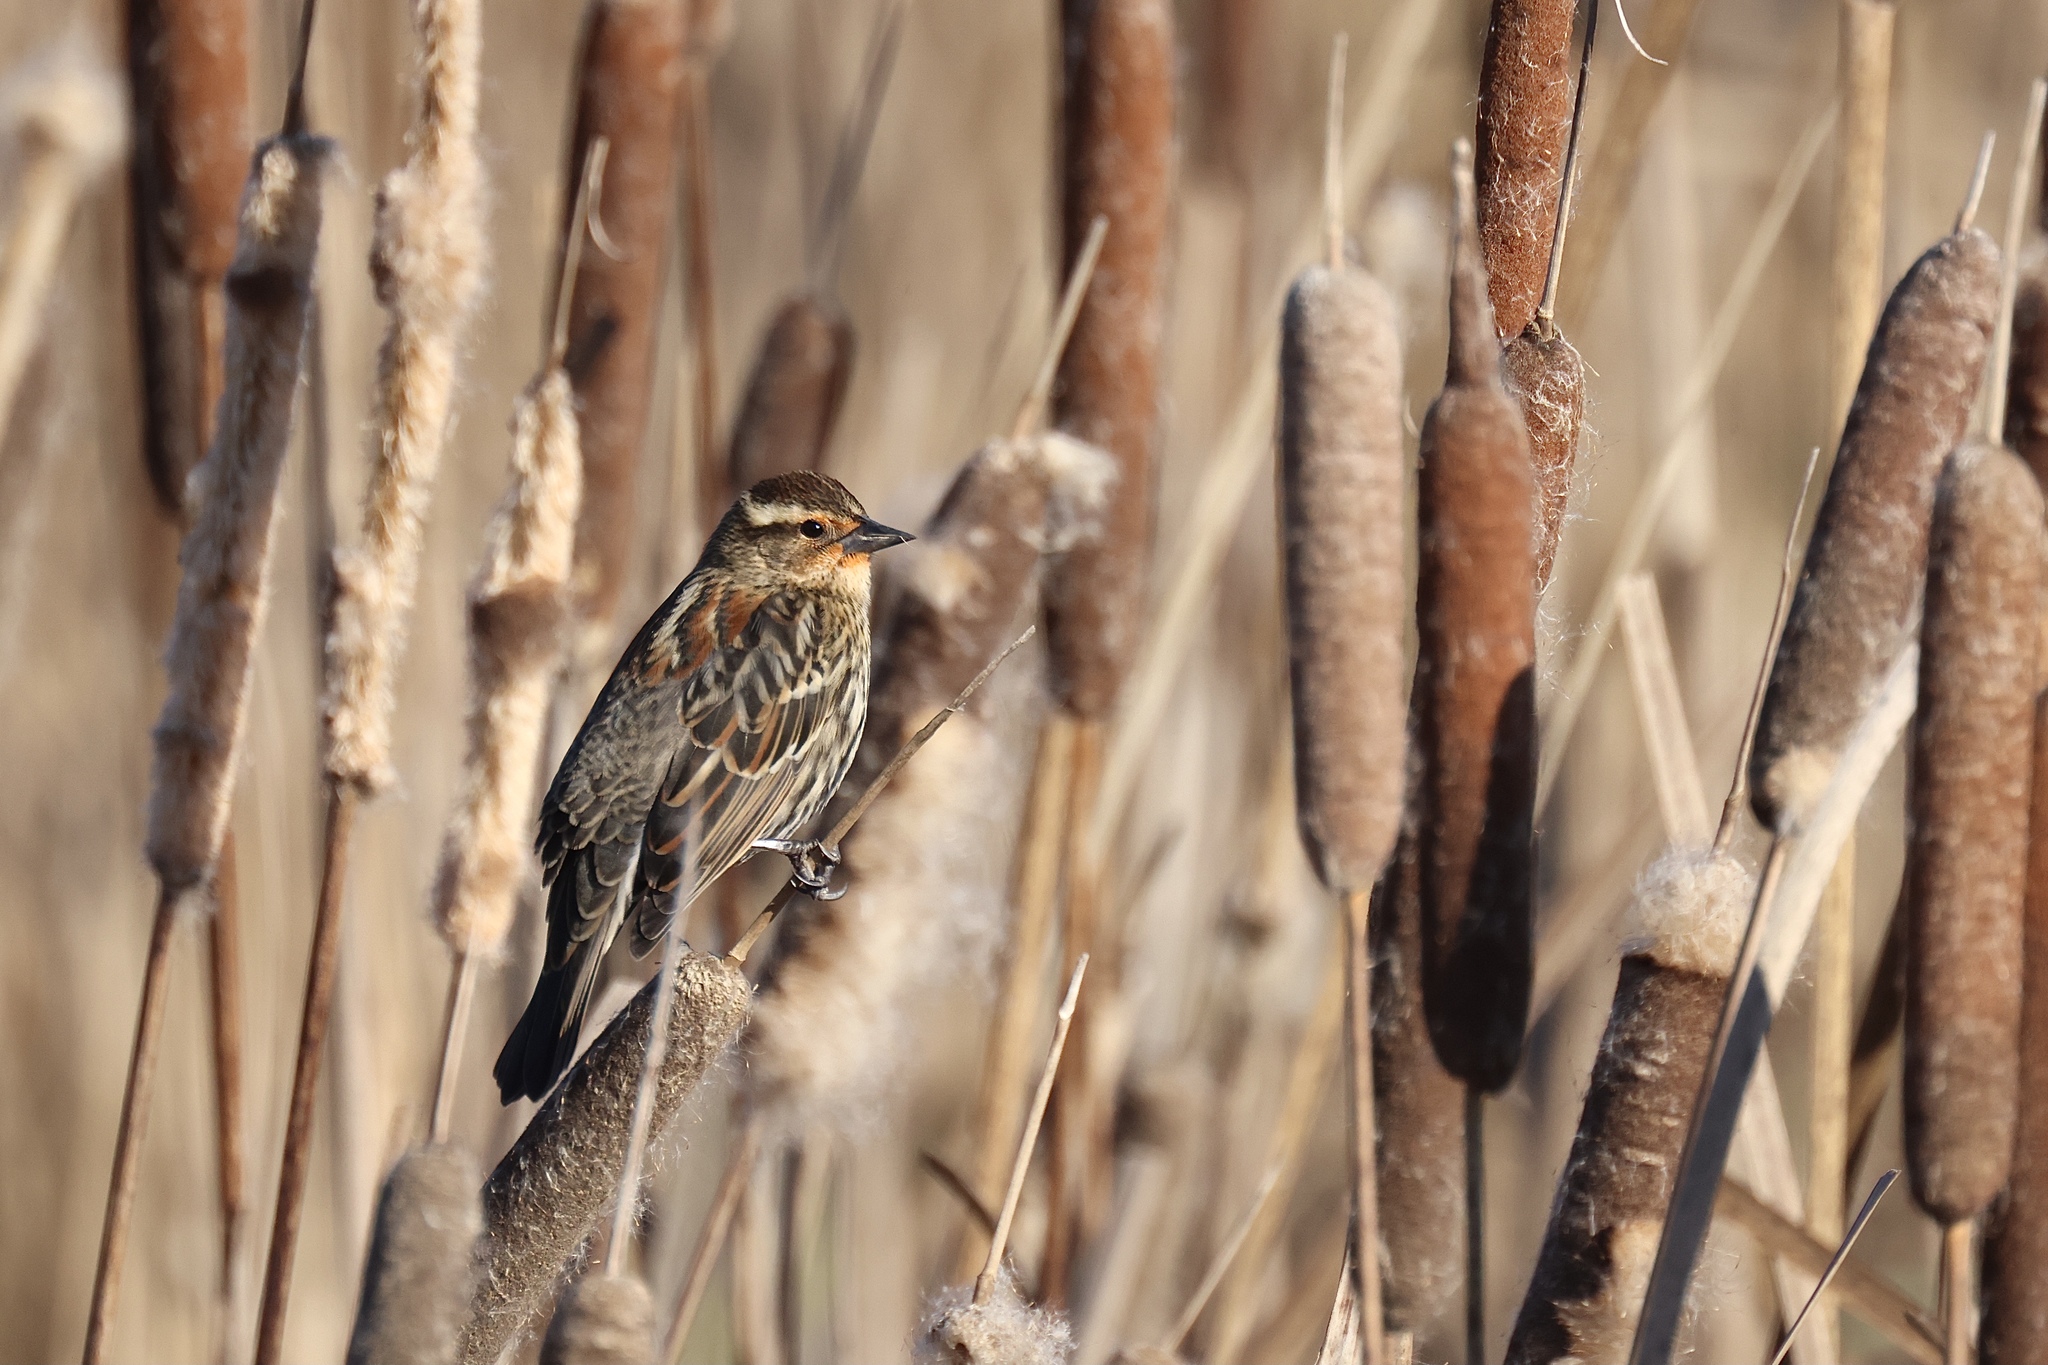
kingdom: Animalia
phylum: Chordata
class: Aves
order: Passeriformes
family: Icteridae
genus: Agelaius
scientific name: Agelaius phoeniceus
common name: Red-winged blackbird
